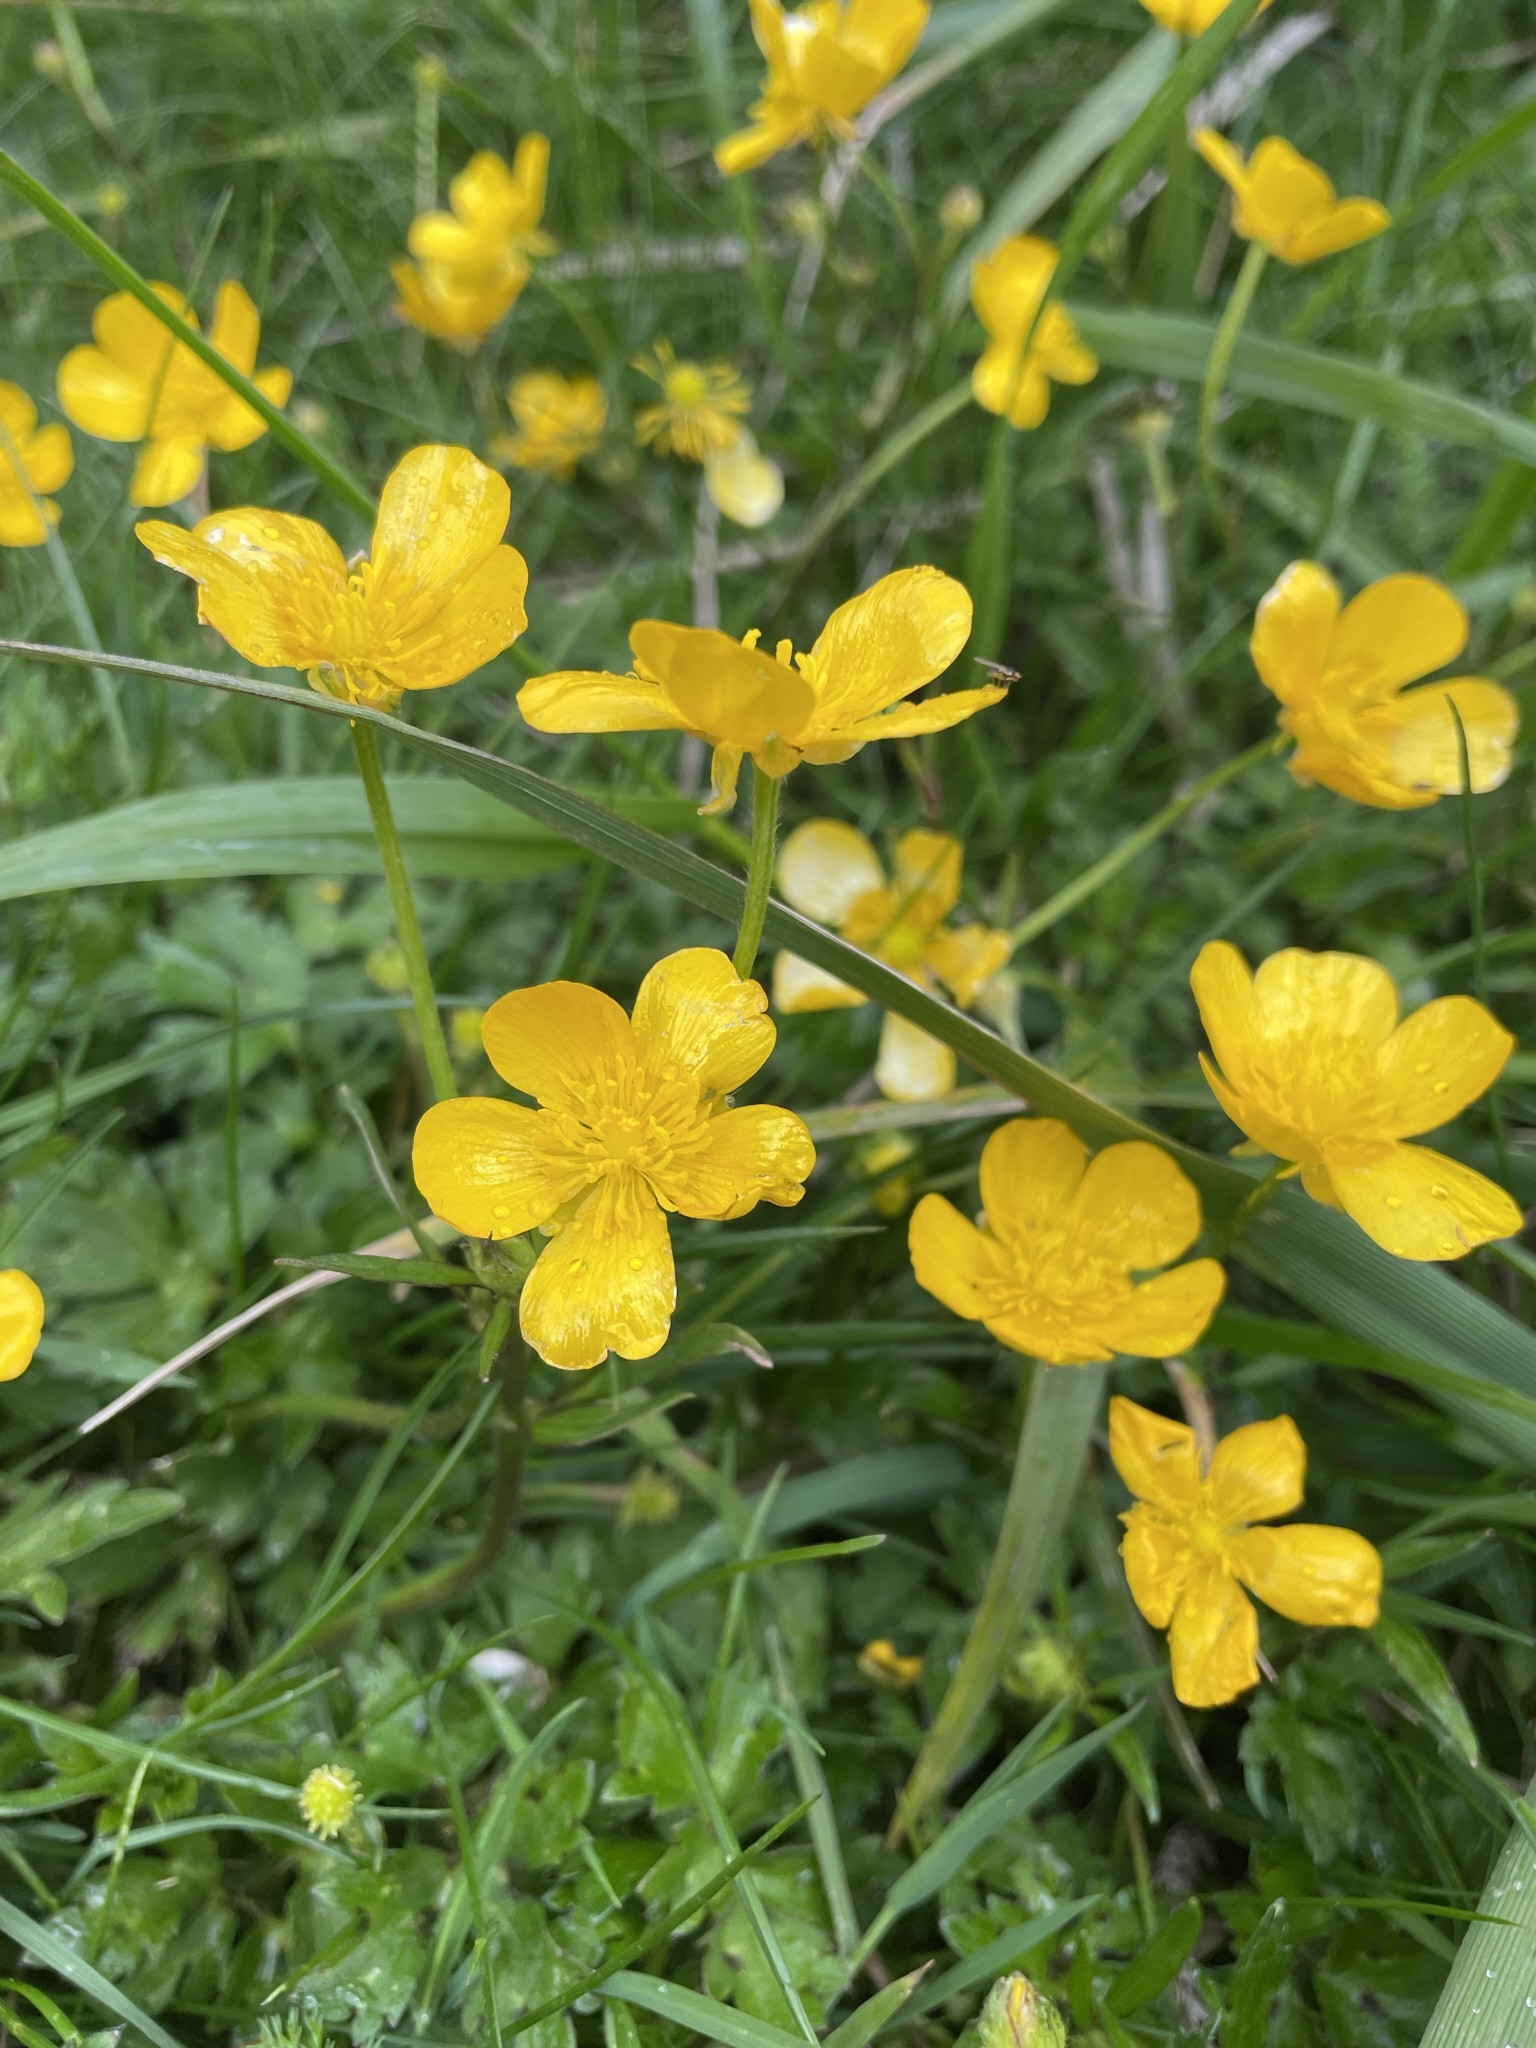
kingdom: Plantae
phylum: Tracheophyta
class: Magnoliopsida
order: Ranunculales
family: Ranunculaceae
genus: Ranunculus
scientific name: Ranunculus repens
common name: Creeping buttercup
